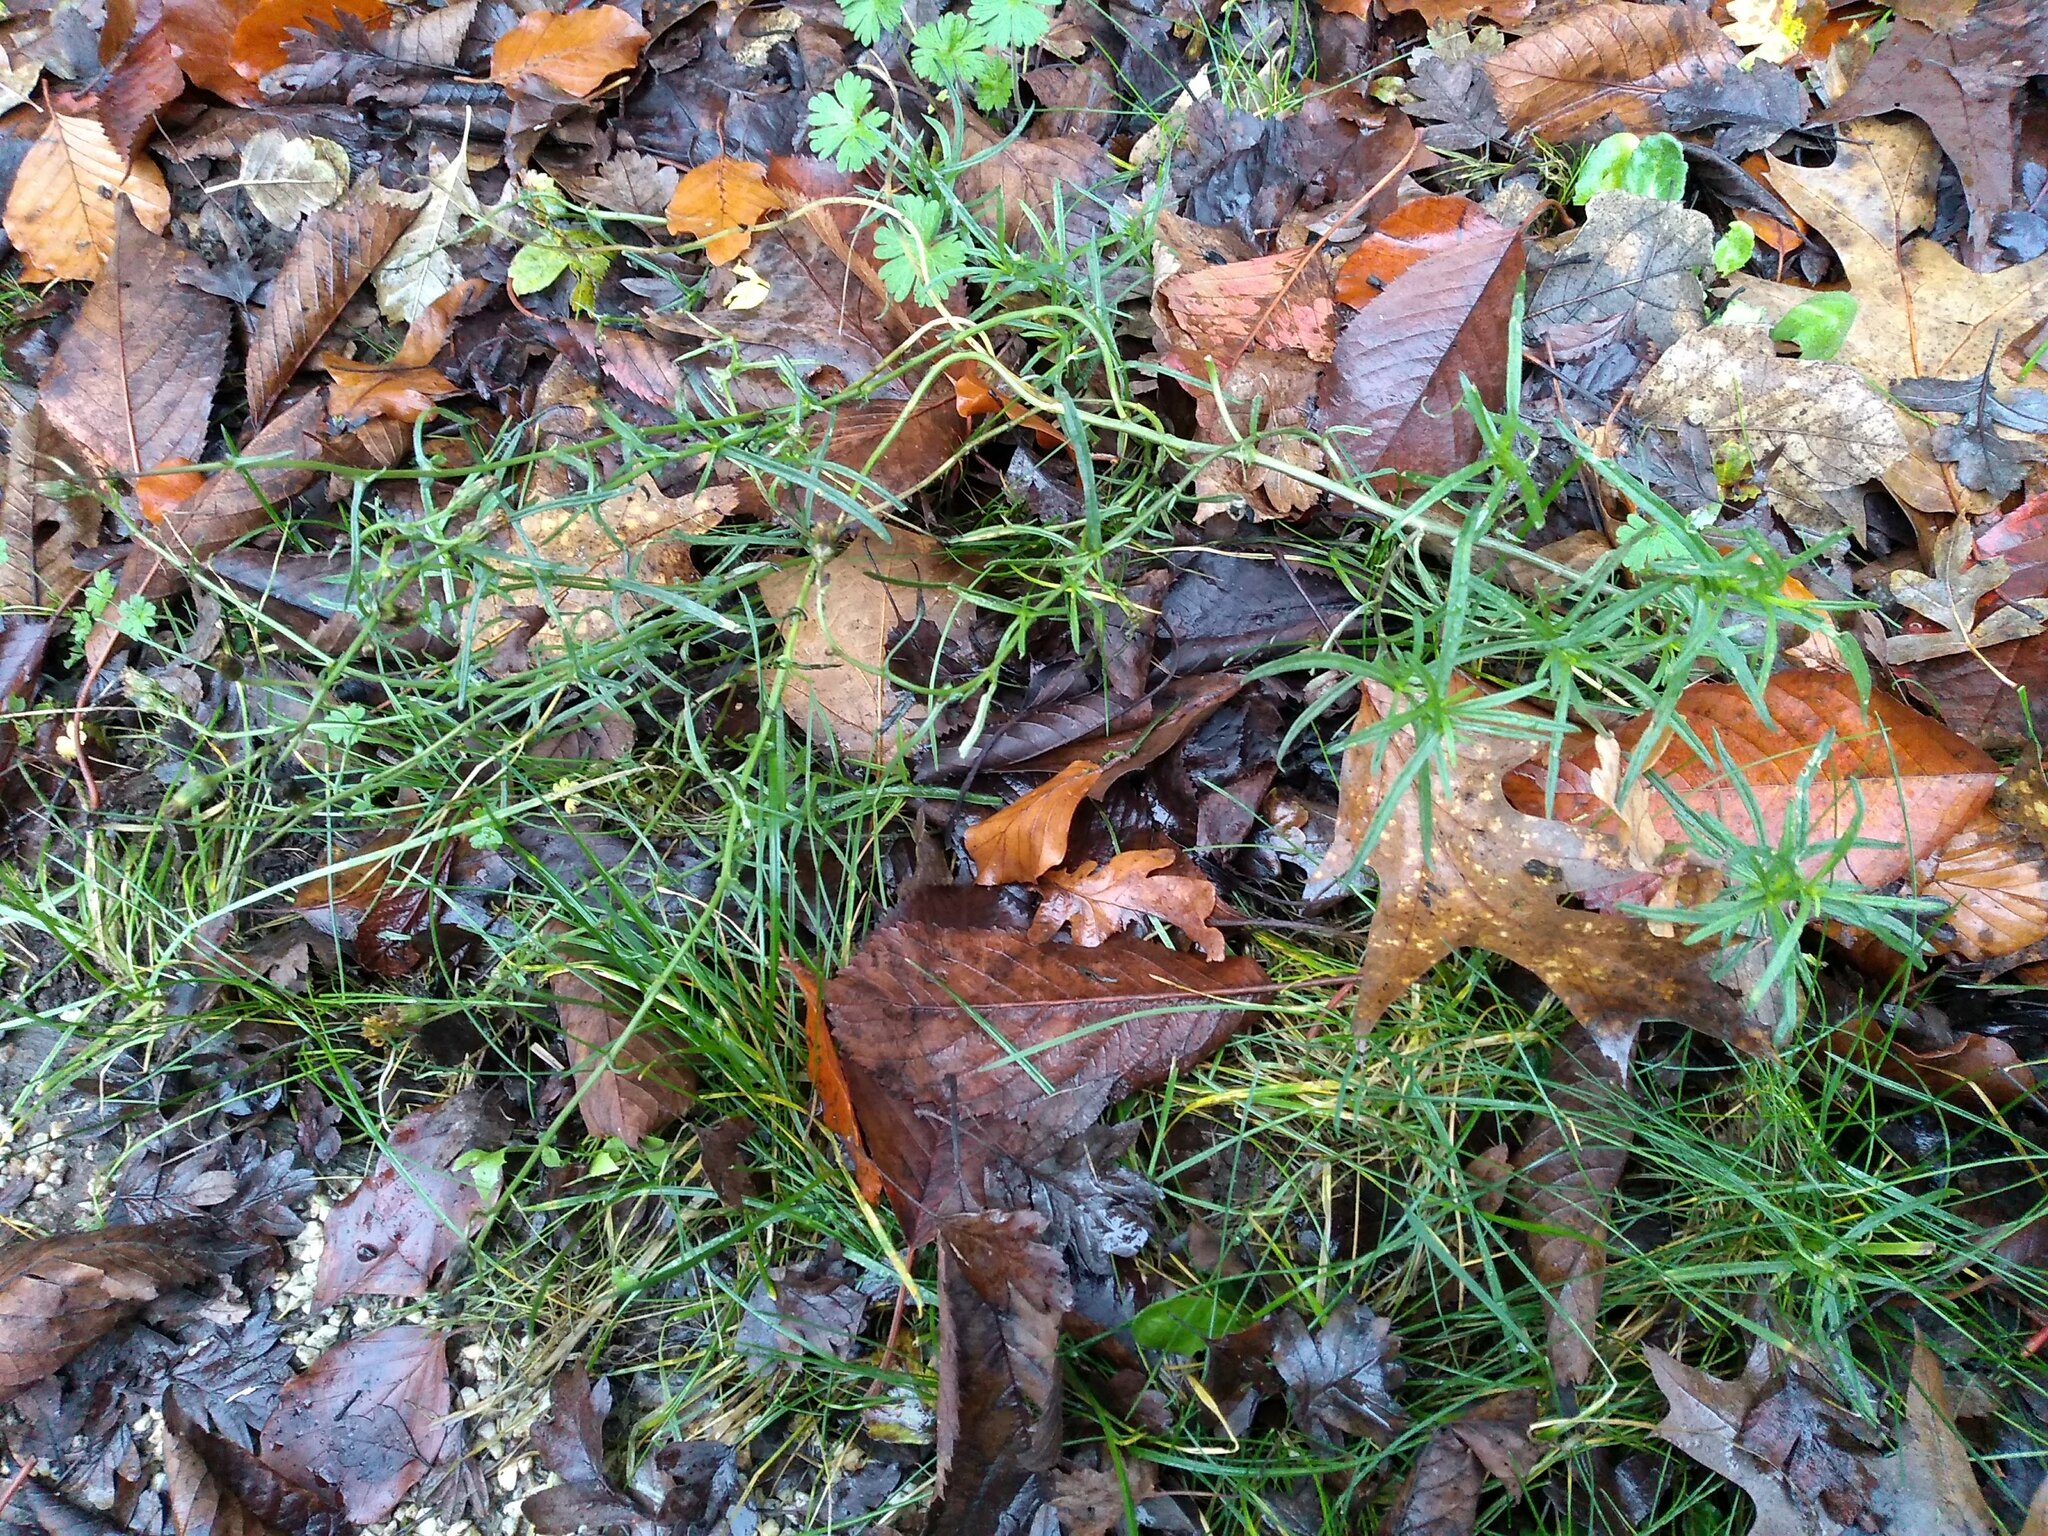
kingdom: Plantae
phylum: Tracheophyta
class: Magnoliopsida
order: Asterales
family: Asteraceae
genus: Senecio
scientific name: Senecio inaequidens
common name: Narrow-leaved ragwort
